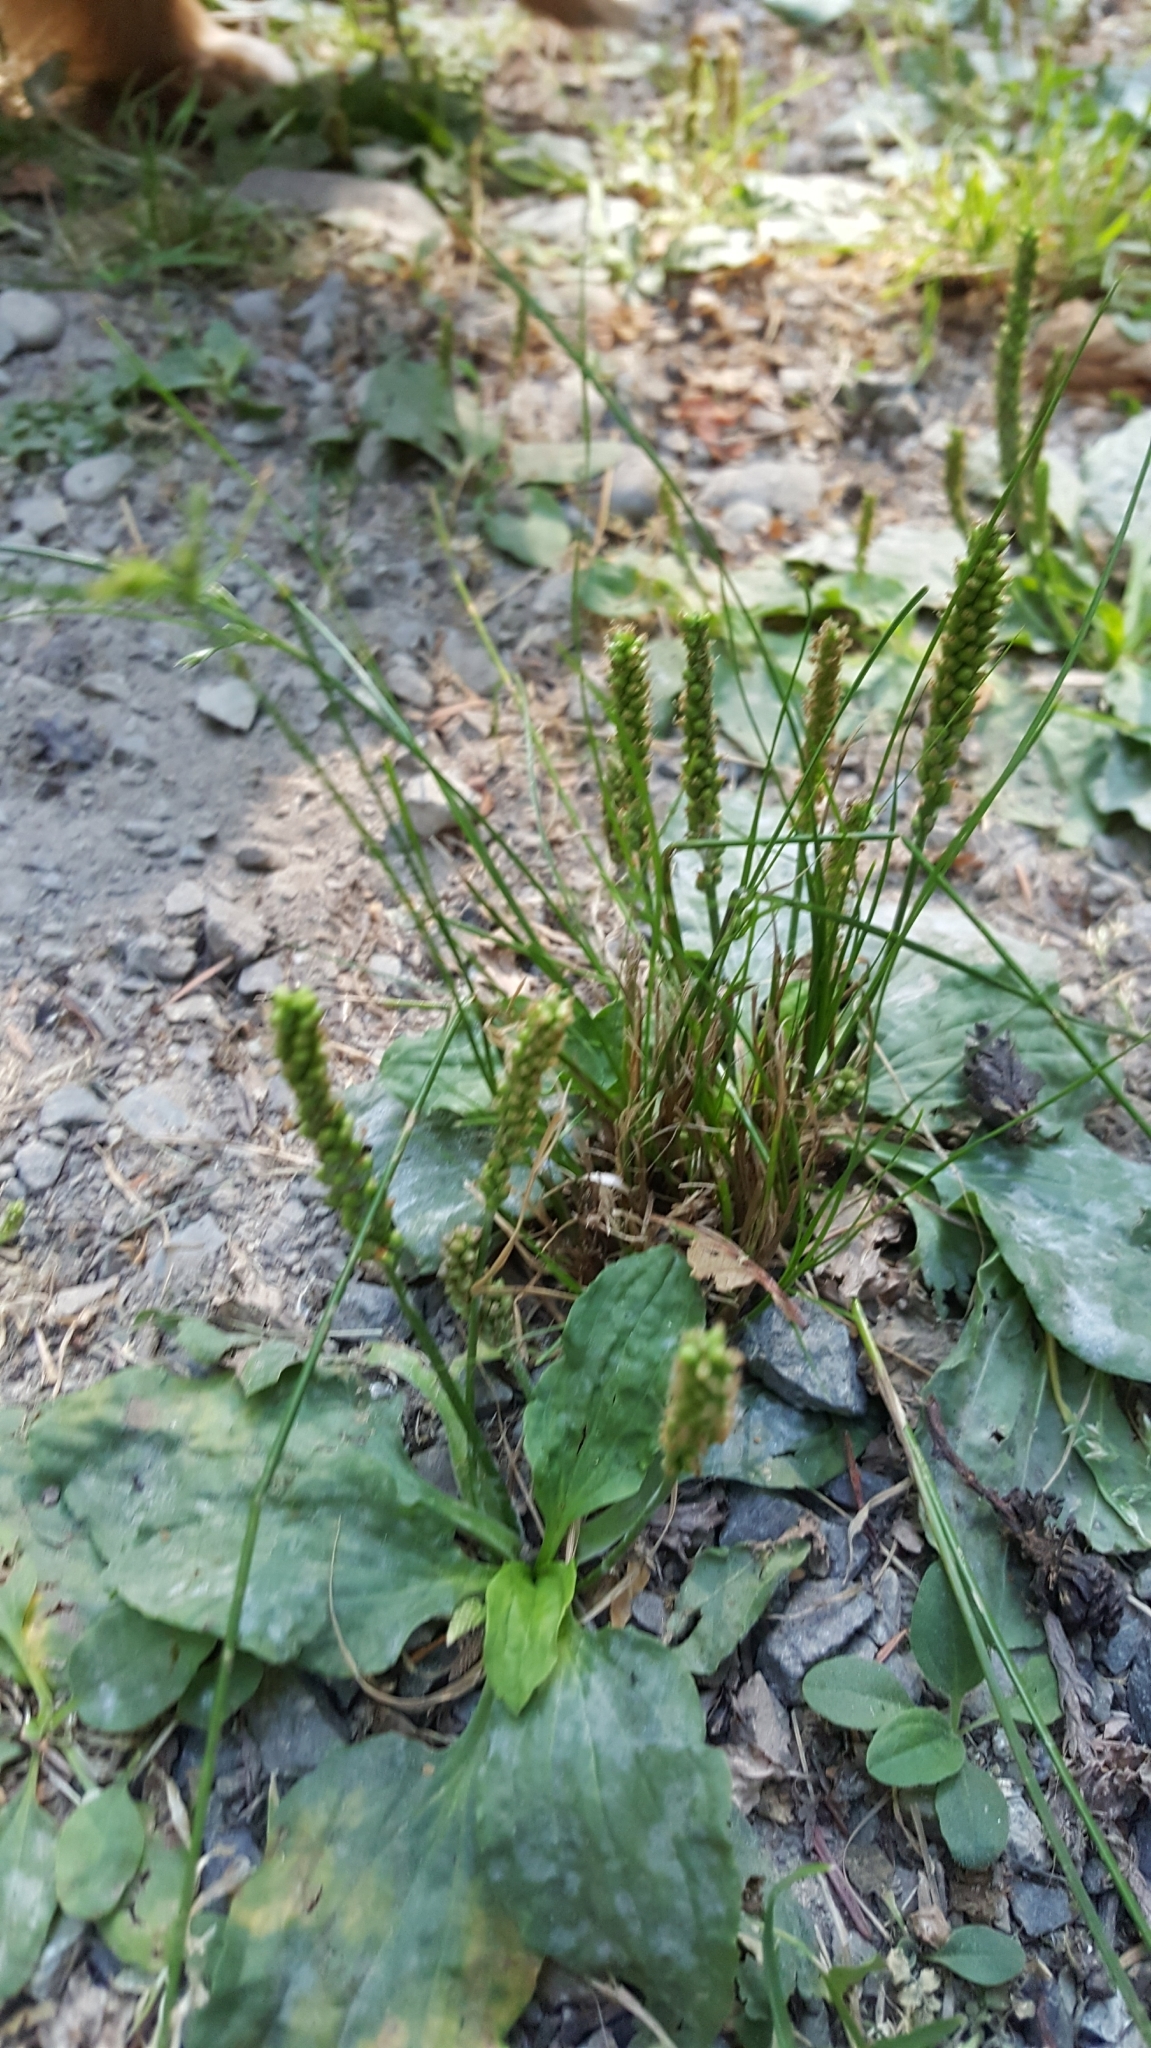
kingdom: Plantae
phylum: Tracheophyta
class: Magnoliopsida
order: Lamiales
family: Plantaginaceae
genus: Plantago
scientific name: Plantago major
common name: Common plantain
